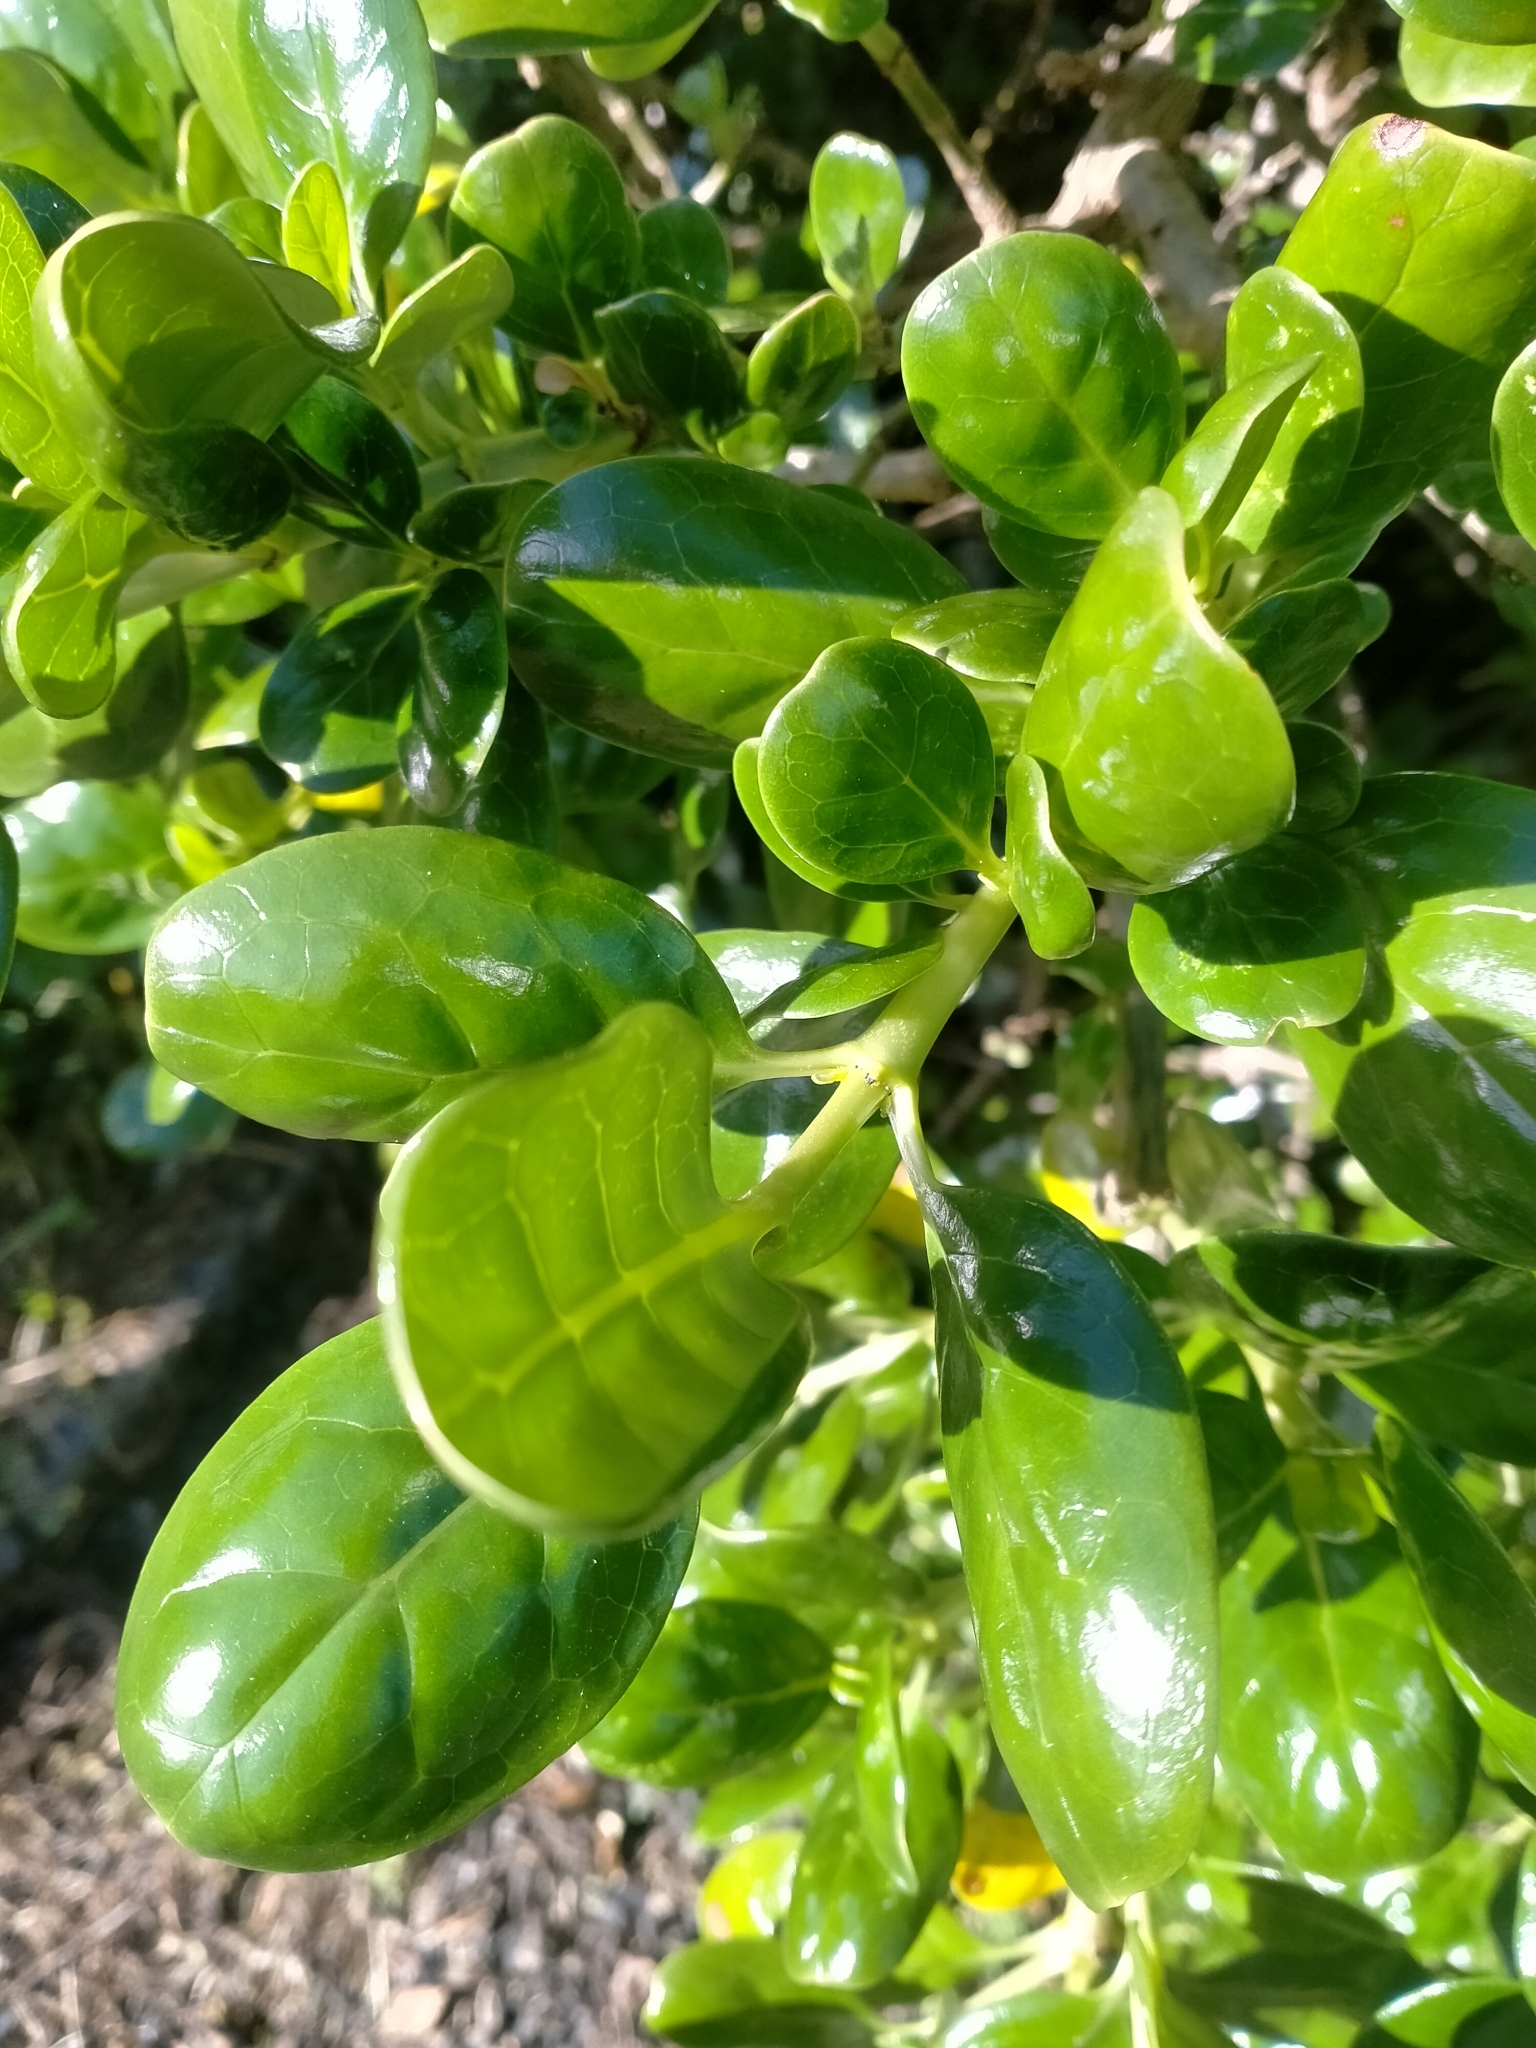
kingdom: Plantae
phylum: Tracheophyta
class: Magnoliopsida
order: Gentianales
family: Rubiaceae
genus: Coprosma
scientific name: Coprosma repens
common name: Tree bedstraw
